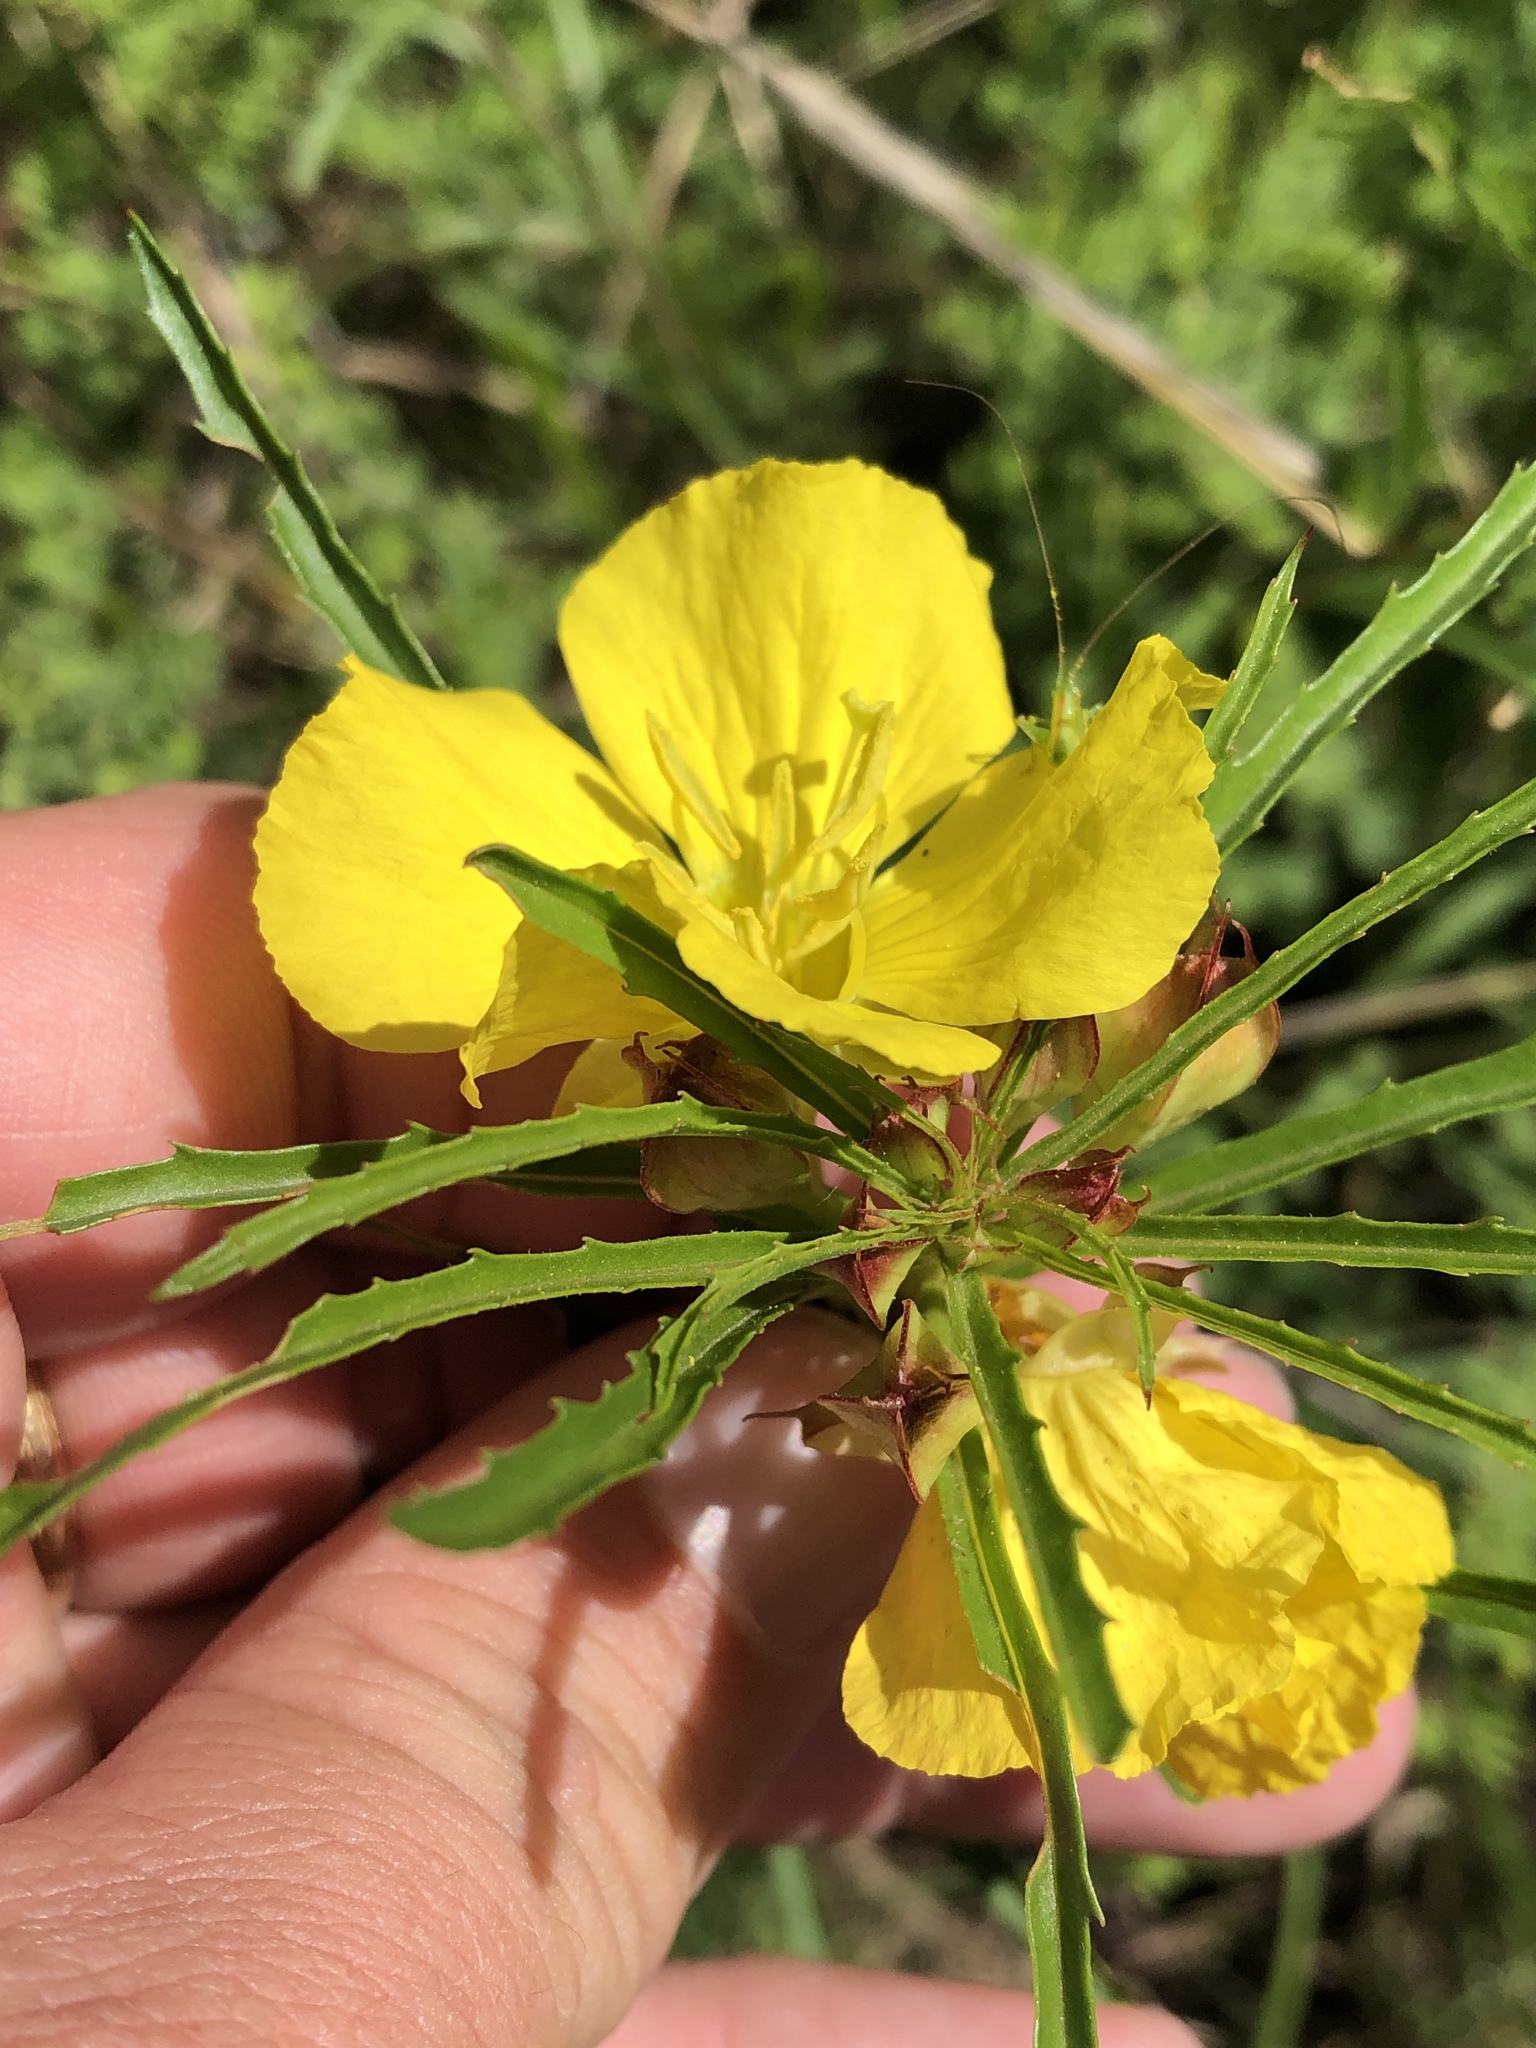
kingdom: Plantae
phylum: Tracheophyta
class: Magnoliopsida
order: Myrtales
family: Onagraceae
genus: Oenothera
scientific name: Oenothera
